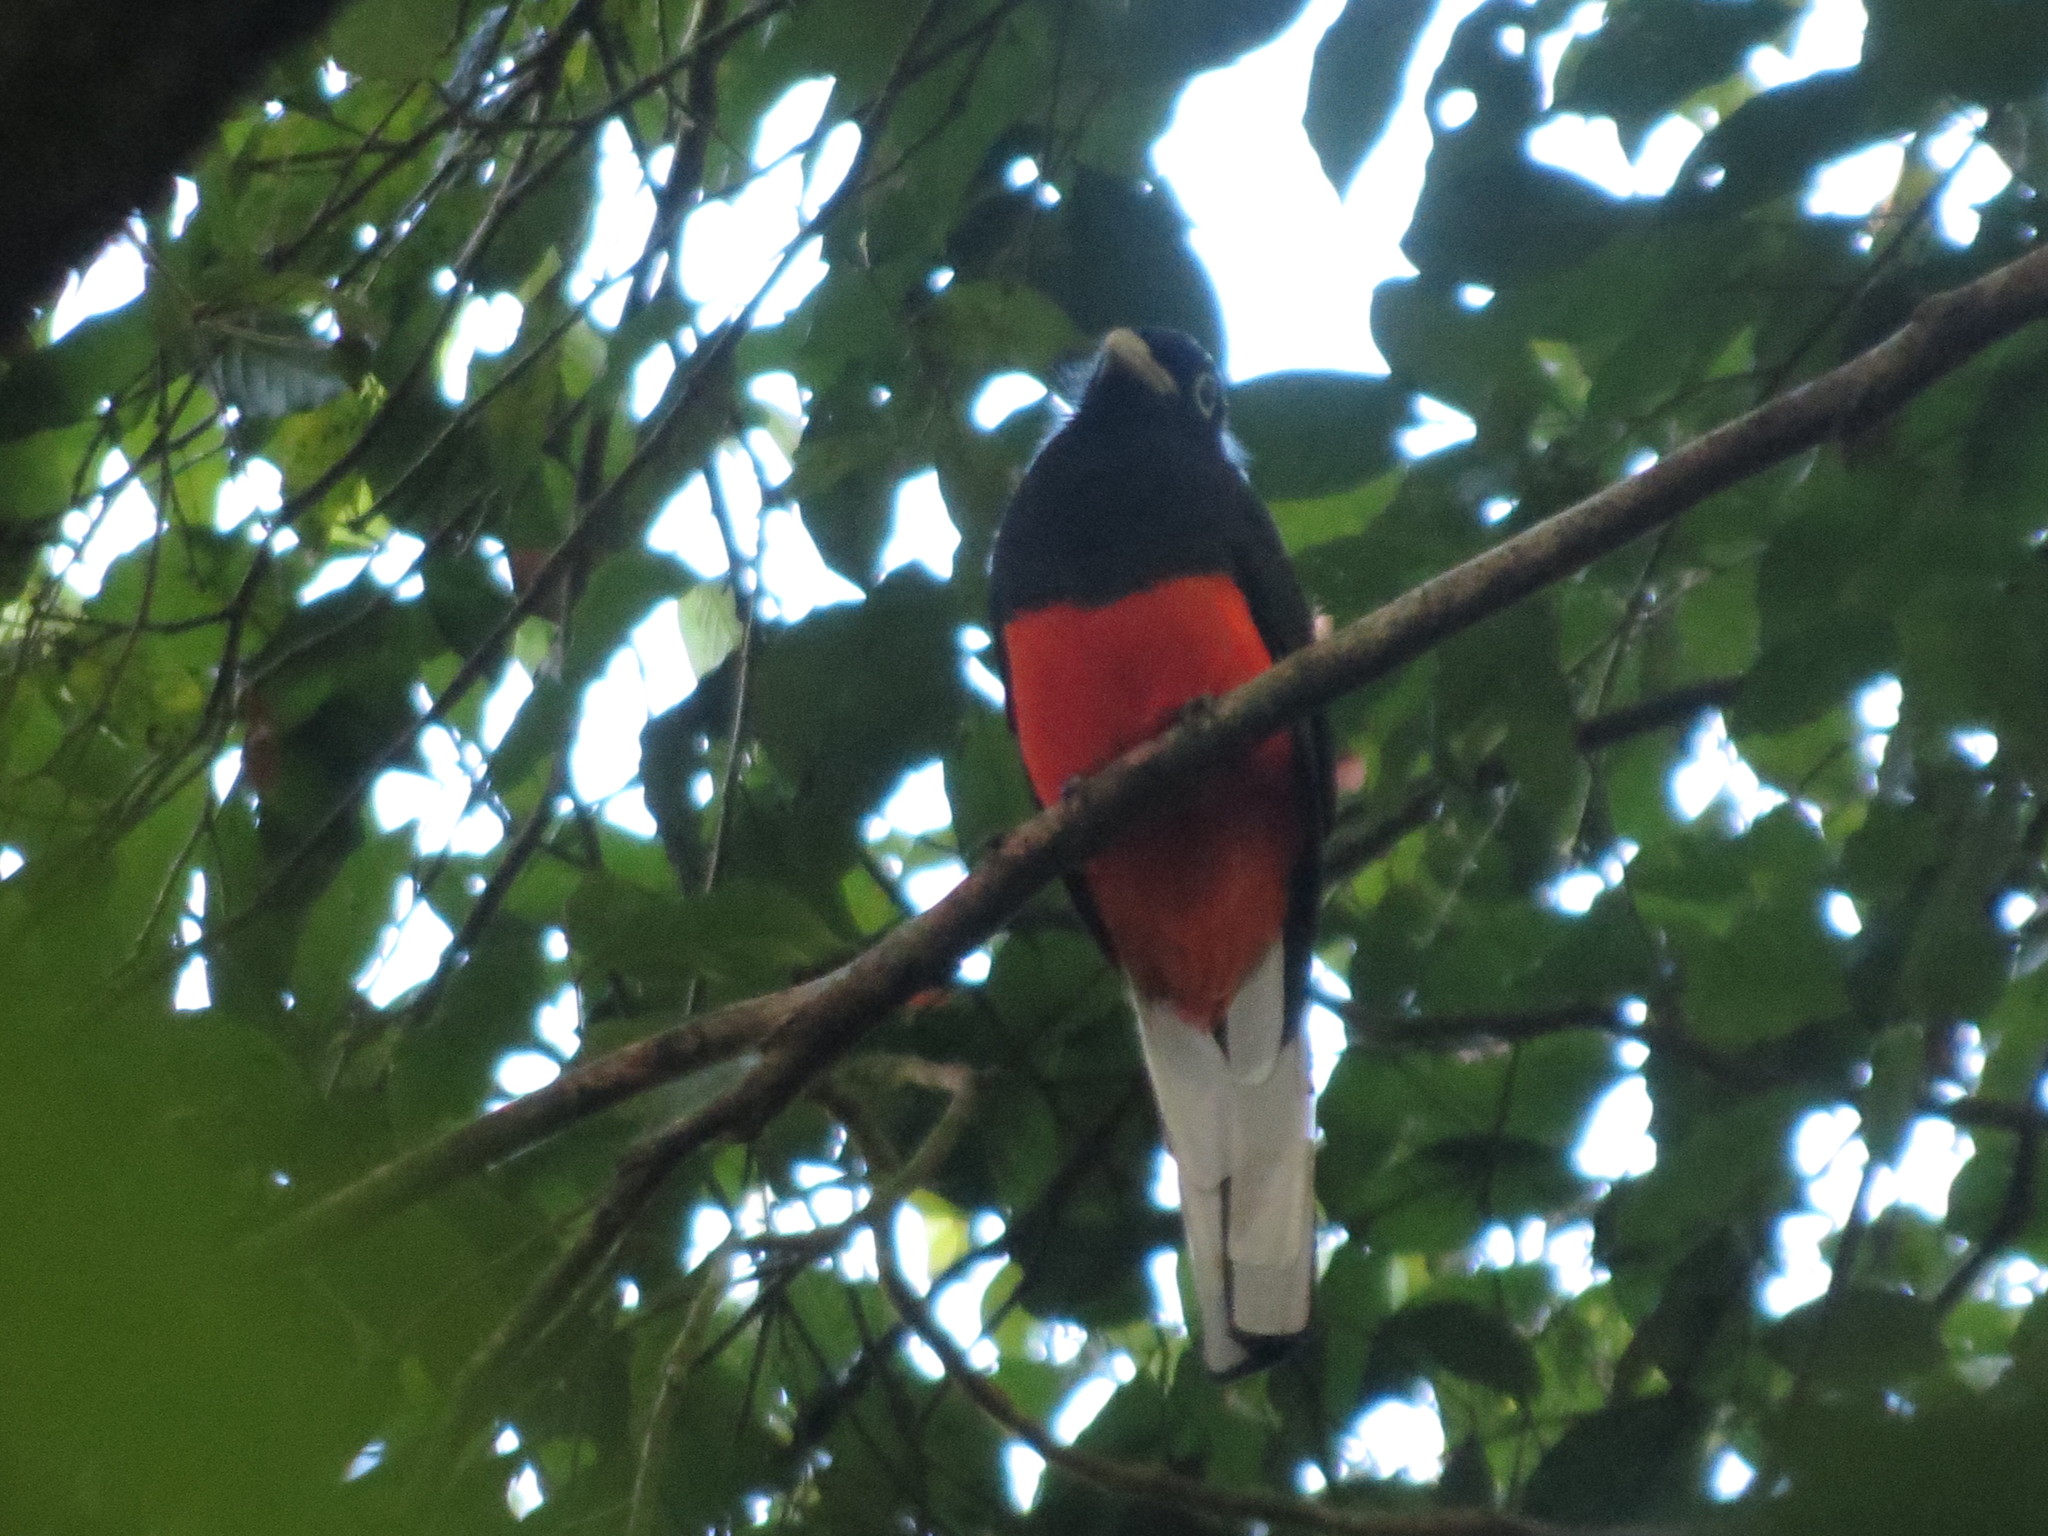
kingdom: Animalia
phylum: Chordata
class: Aves
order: Trogoniformes
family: Trogonidae
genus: Trogon
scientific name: Trogon bairdii
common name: Baird's trogon
